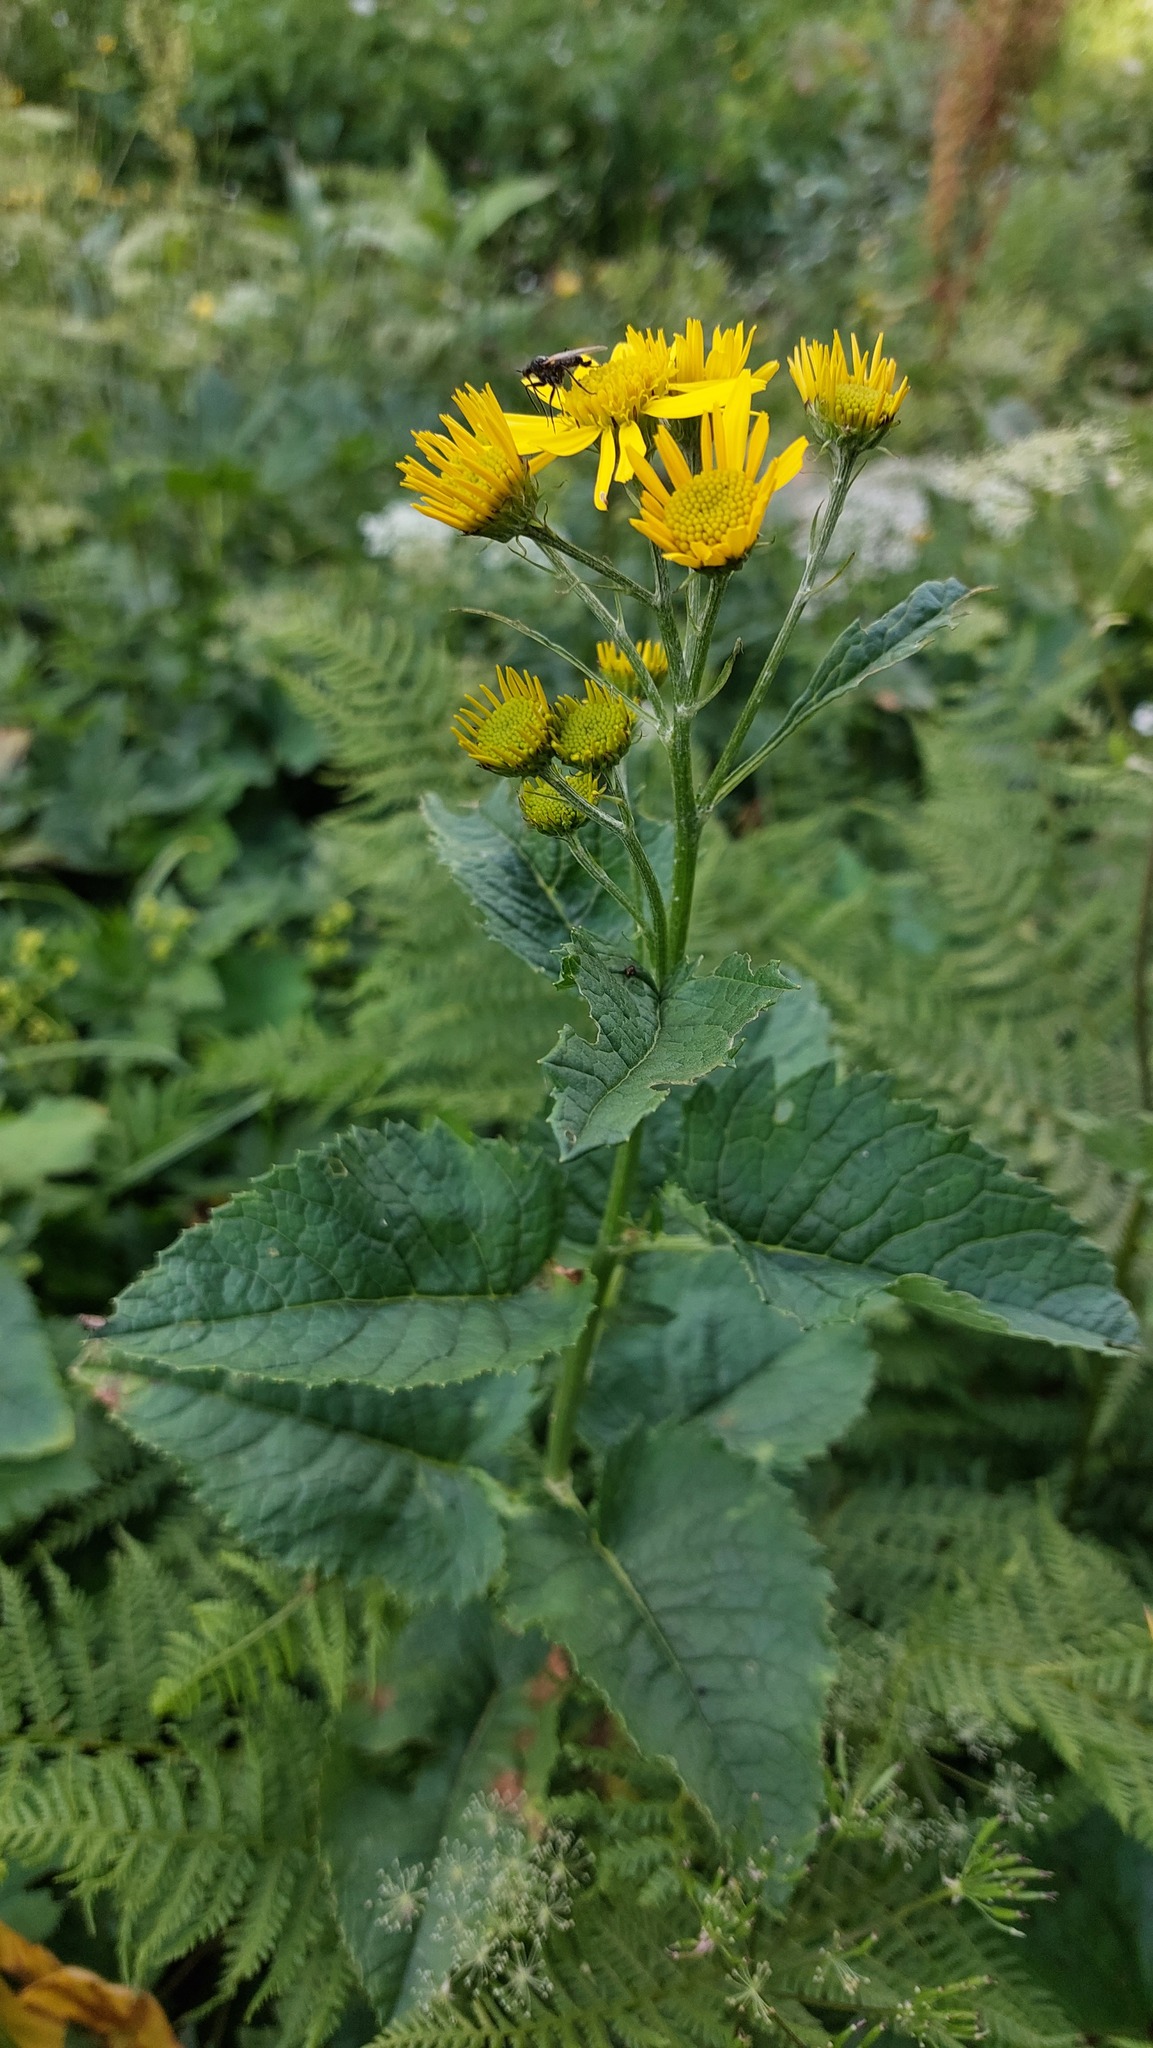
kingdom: Plantae
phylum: Tracheophyta
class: Magnoliopsida
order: Asterales
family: Asteraceae
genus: Jacobaea
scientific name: Jacobaea alpina
